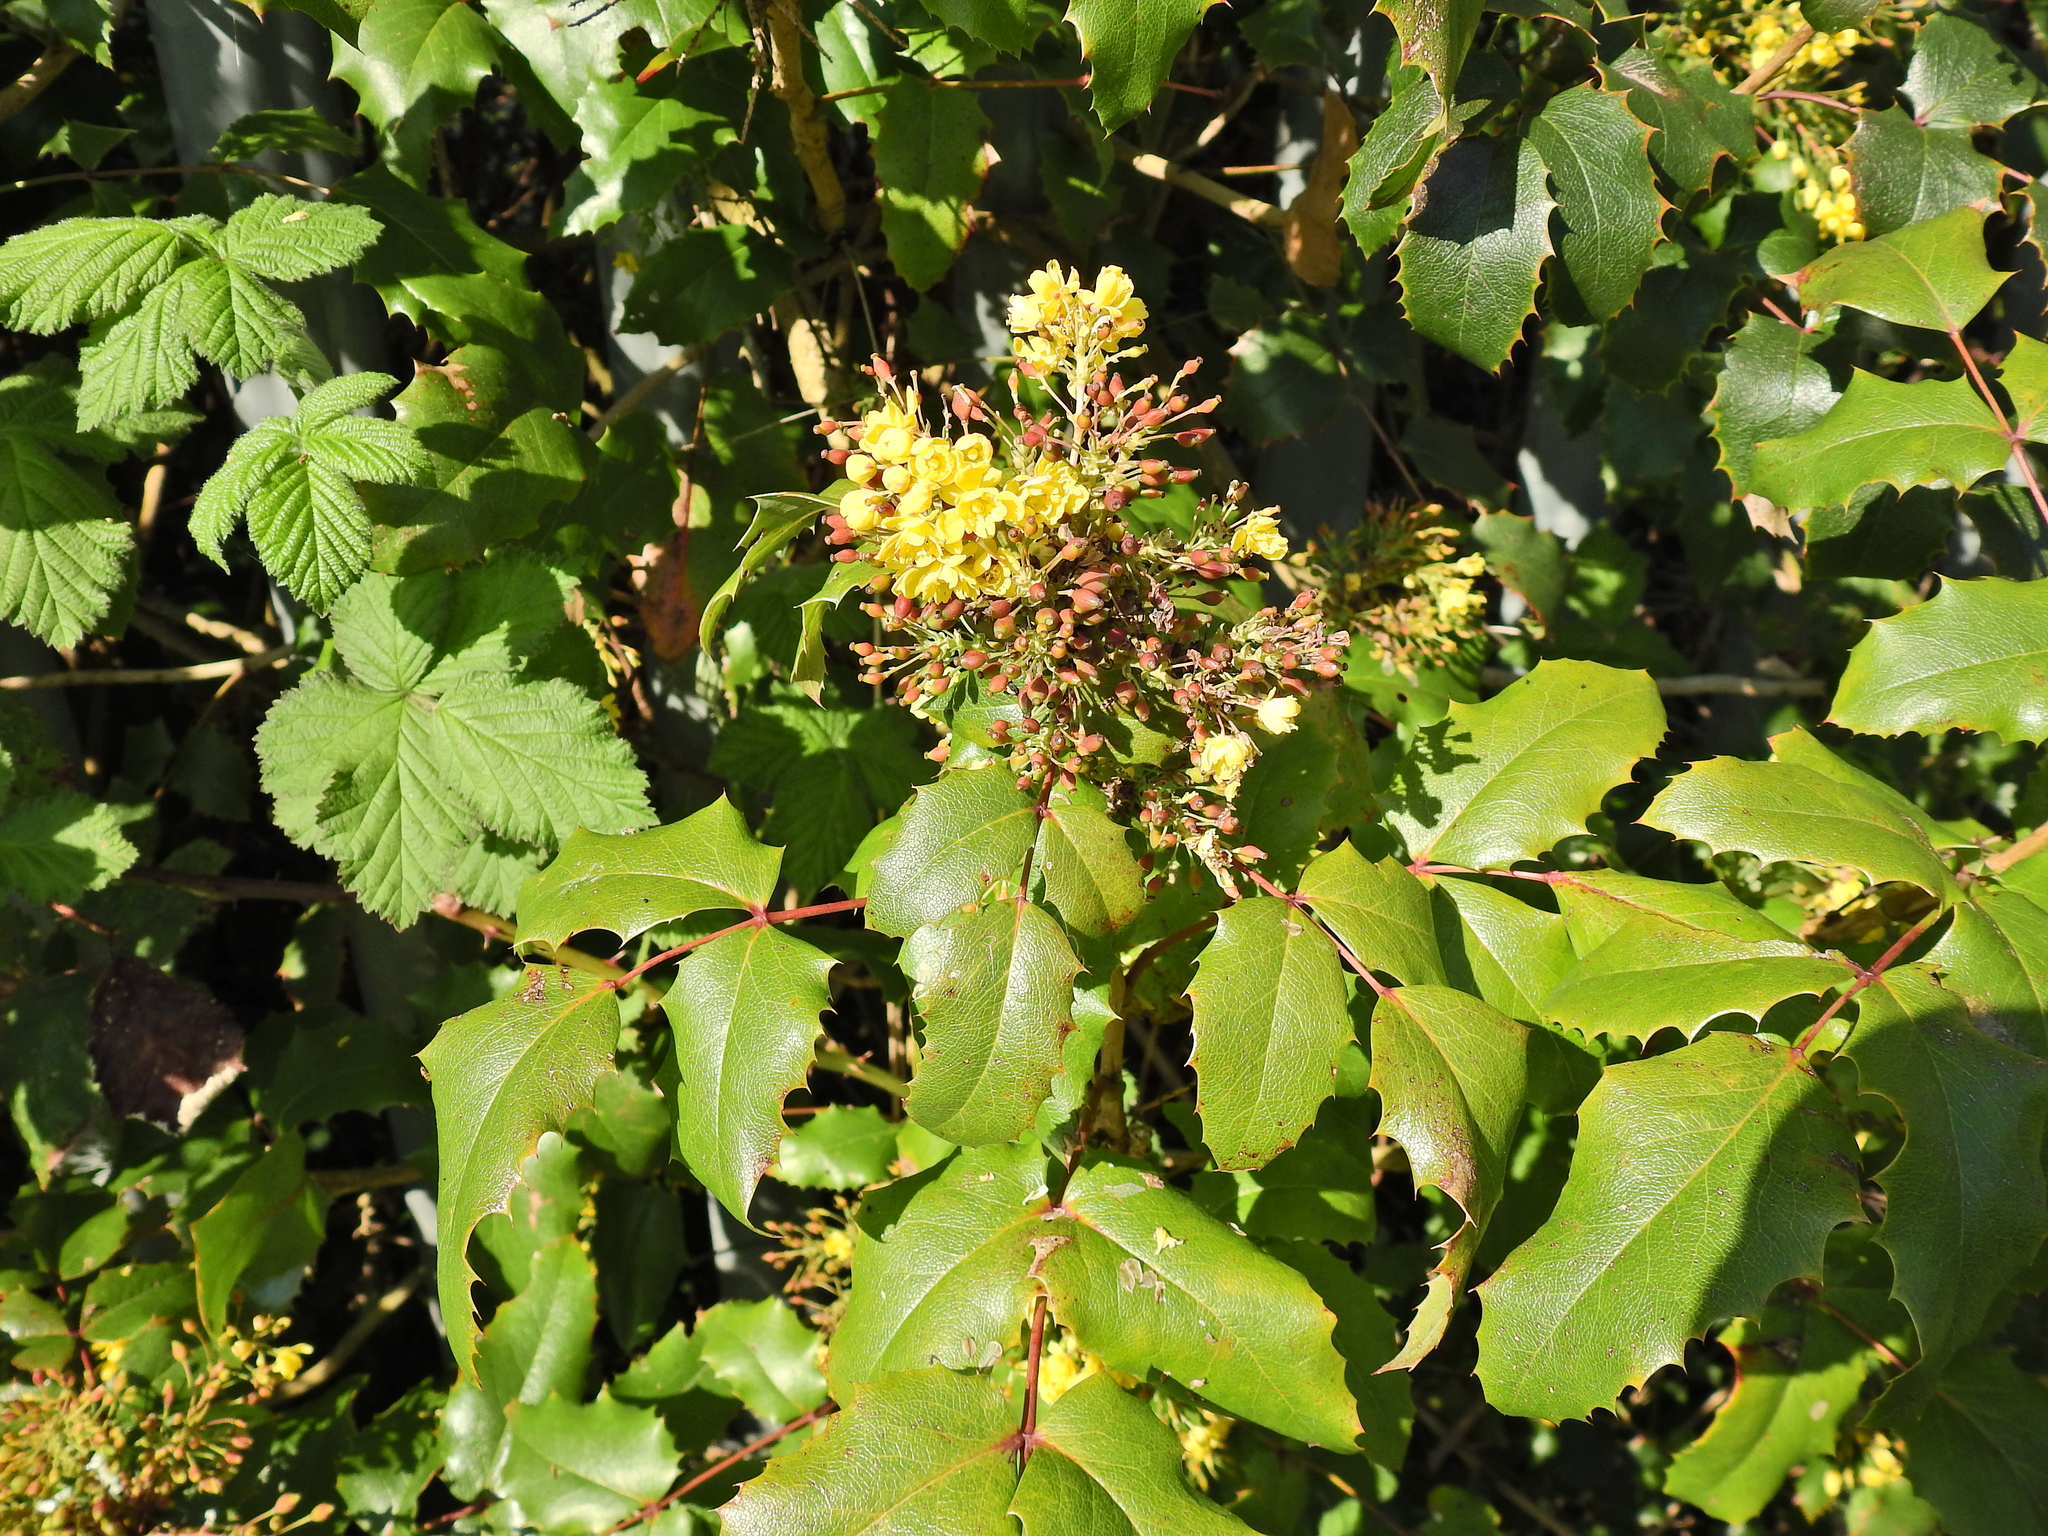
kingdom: Plantae
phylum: Tracheophyta
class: Magnoliopsida
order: Ranunculales
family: Berberidaceae
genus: Mahonia
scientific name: Mahonia aquifolium
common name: Oregon-grape
